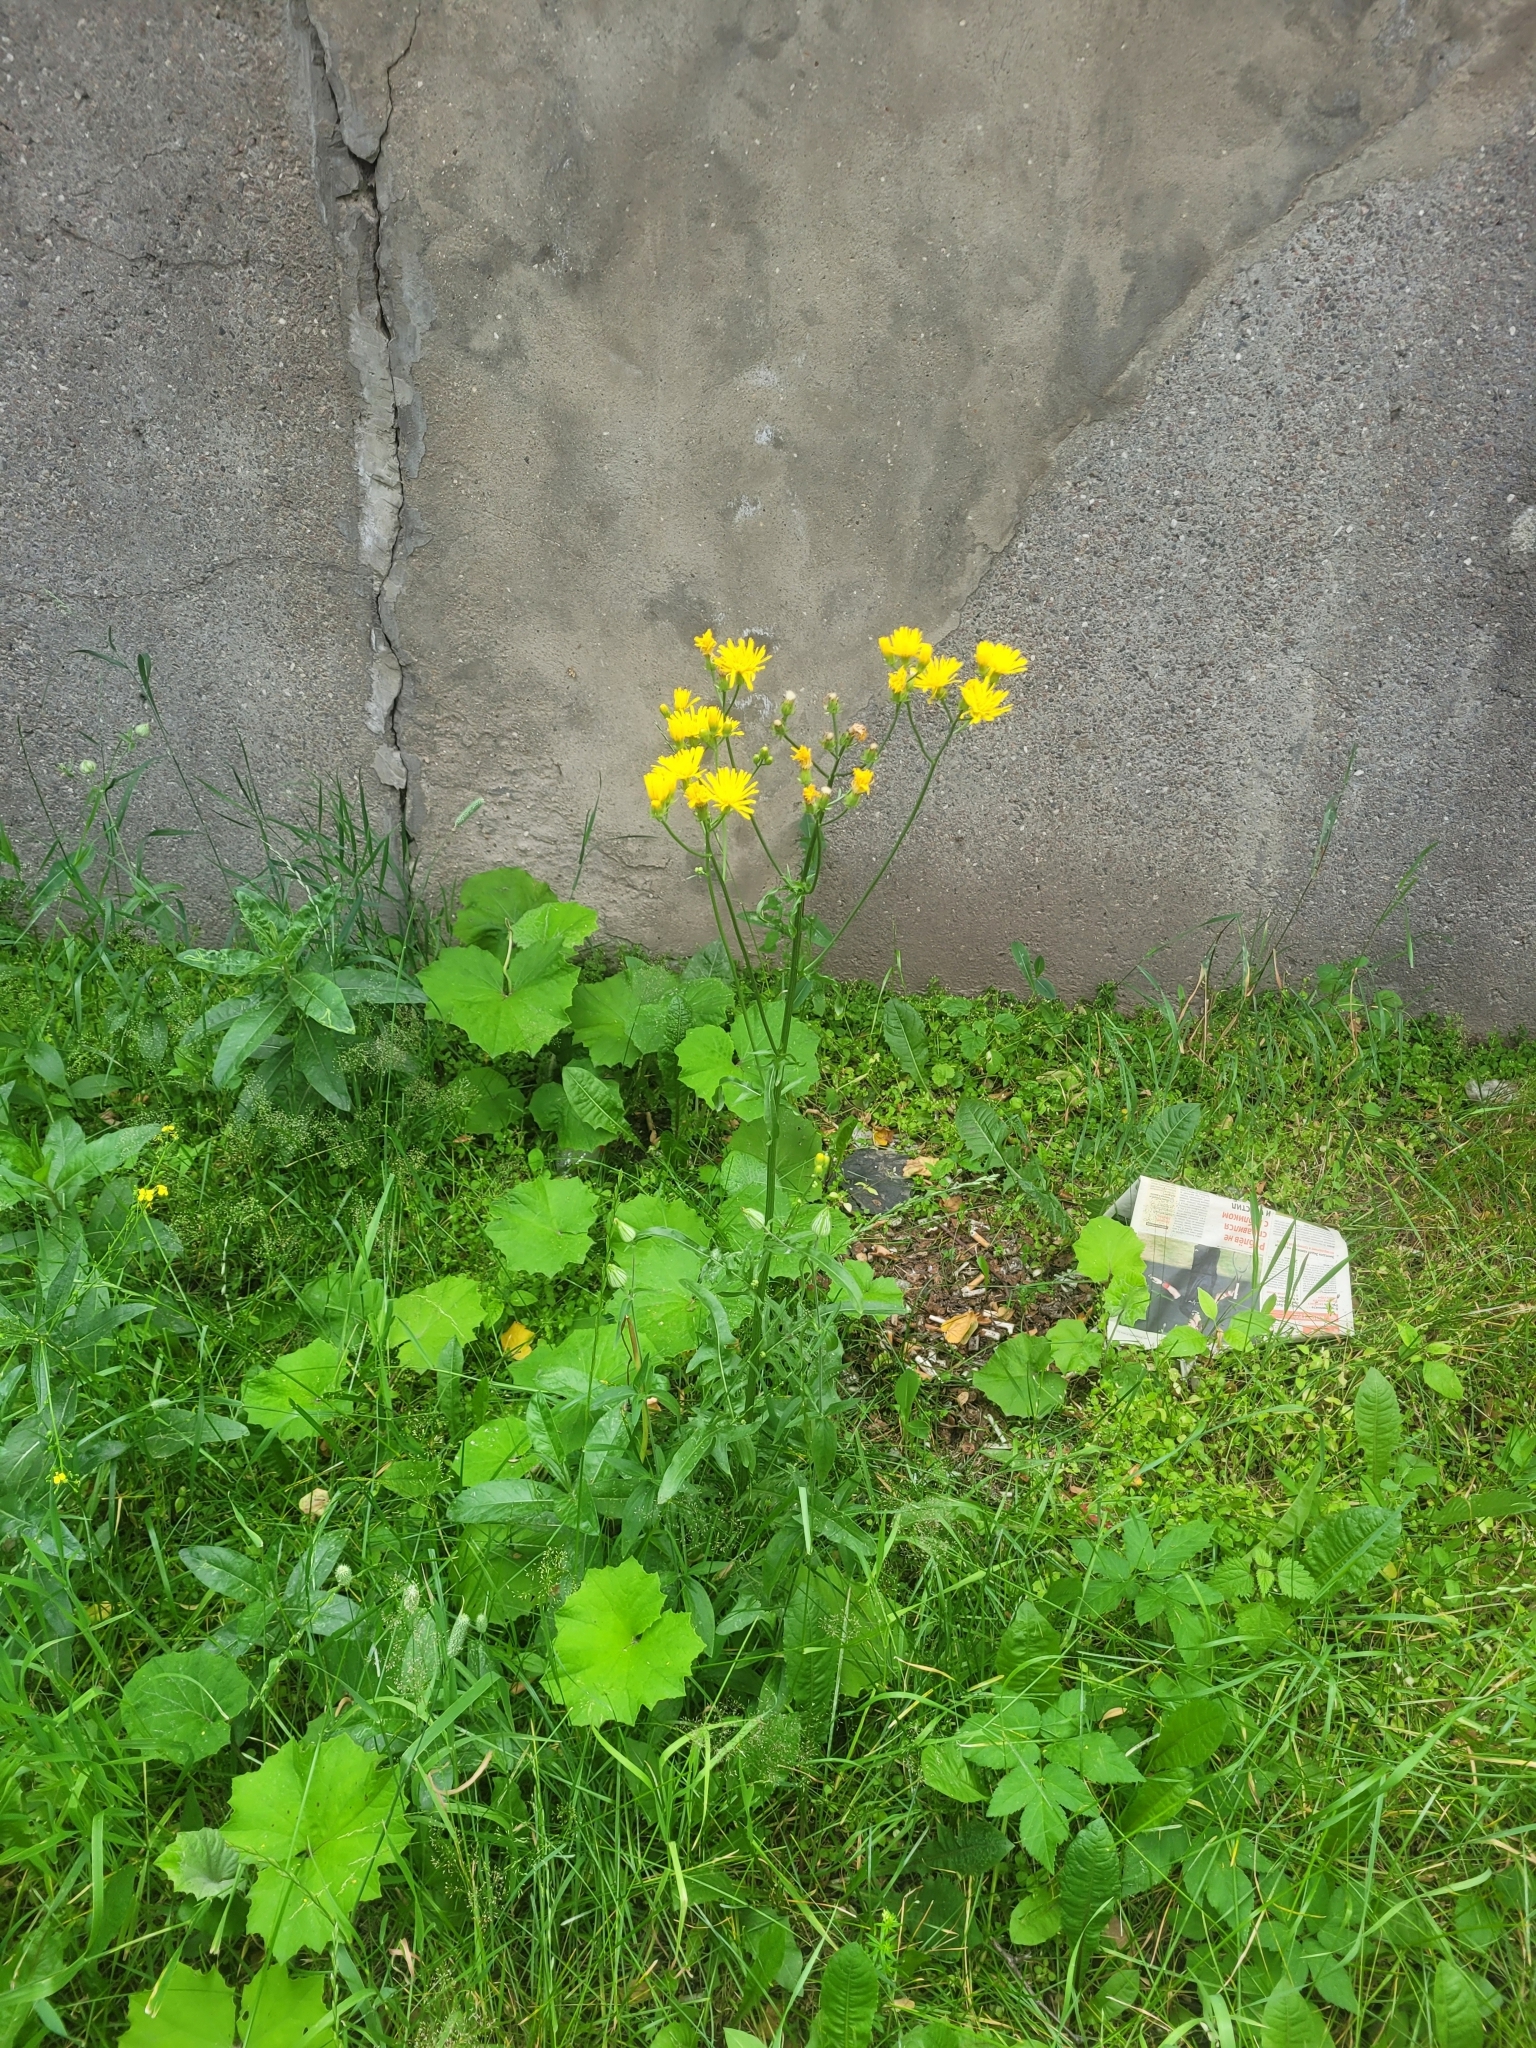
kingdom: Plantae
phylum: Tracheophyta
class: Magnoliopsida
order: Asterales
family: Asteraceae
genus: Crepis
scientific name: Crepis biennis
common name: Rough hawk's-beard
